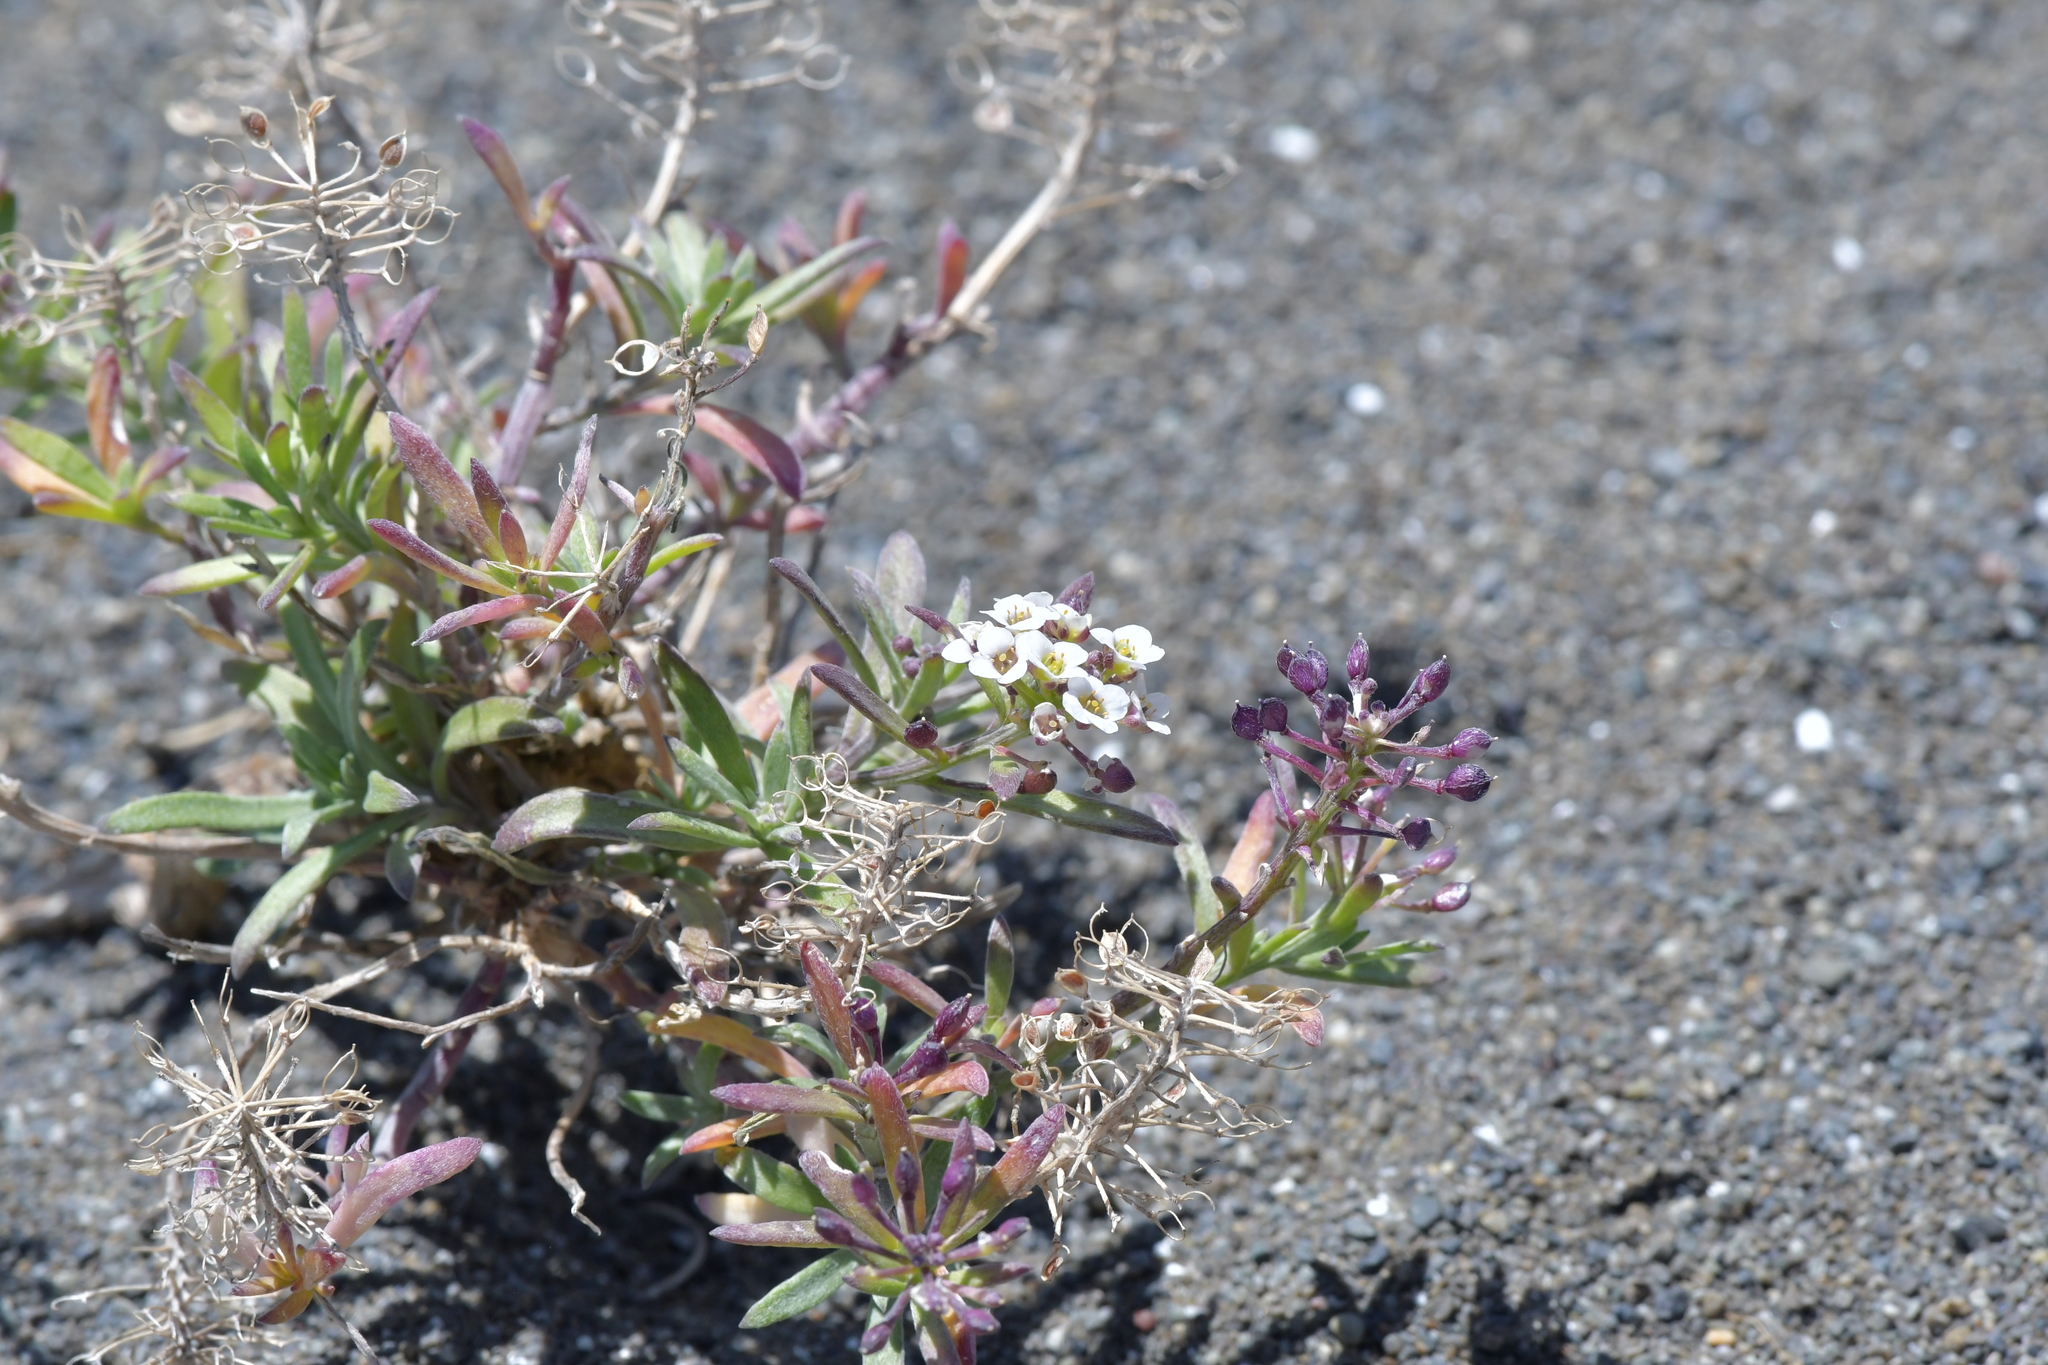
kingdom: Plantae
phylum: Tracheophyta
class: Magnoliopsida
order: Brassicales
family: Brassicaceae
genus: Lobularia
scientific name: Lobularia maritima
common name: Sweet alison
